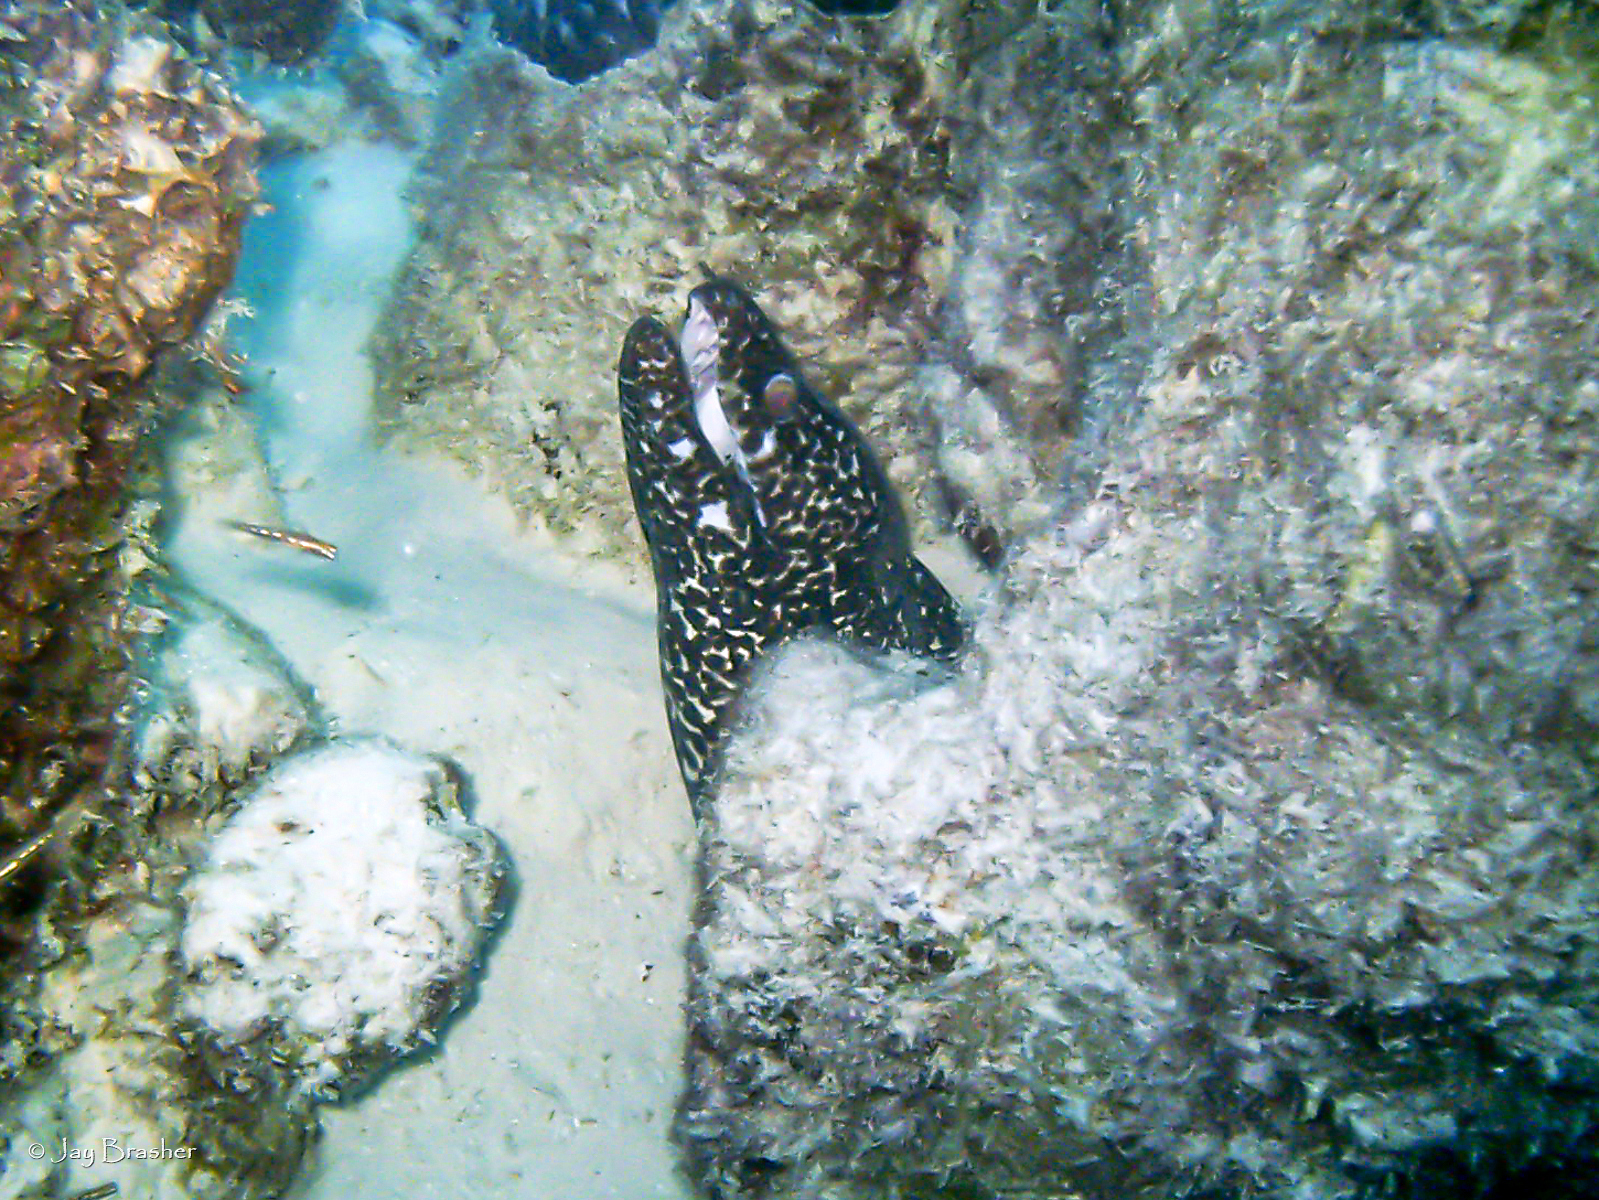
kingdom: Animalia
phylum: Chordata
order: Anguilliformes
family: Muraenidae
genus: Gymnothorax
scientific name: Gymnothorax moringa
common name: Spotted moray
